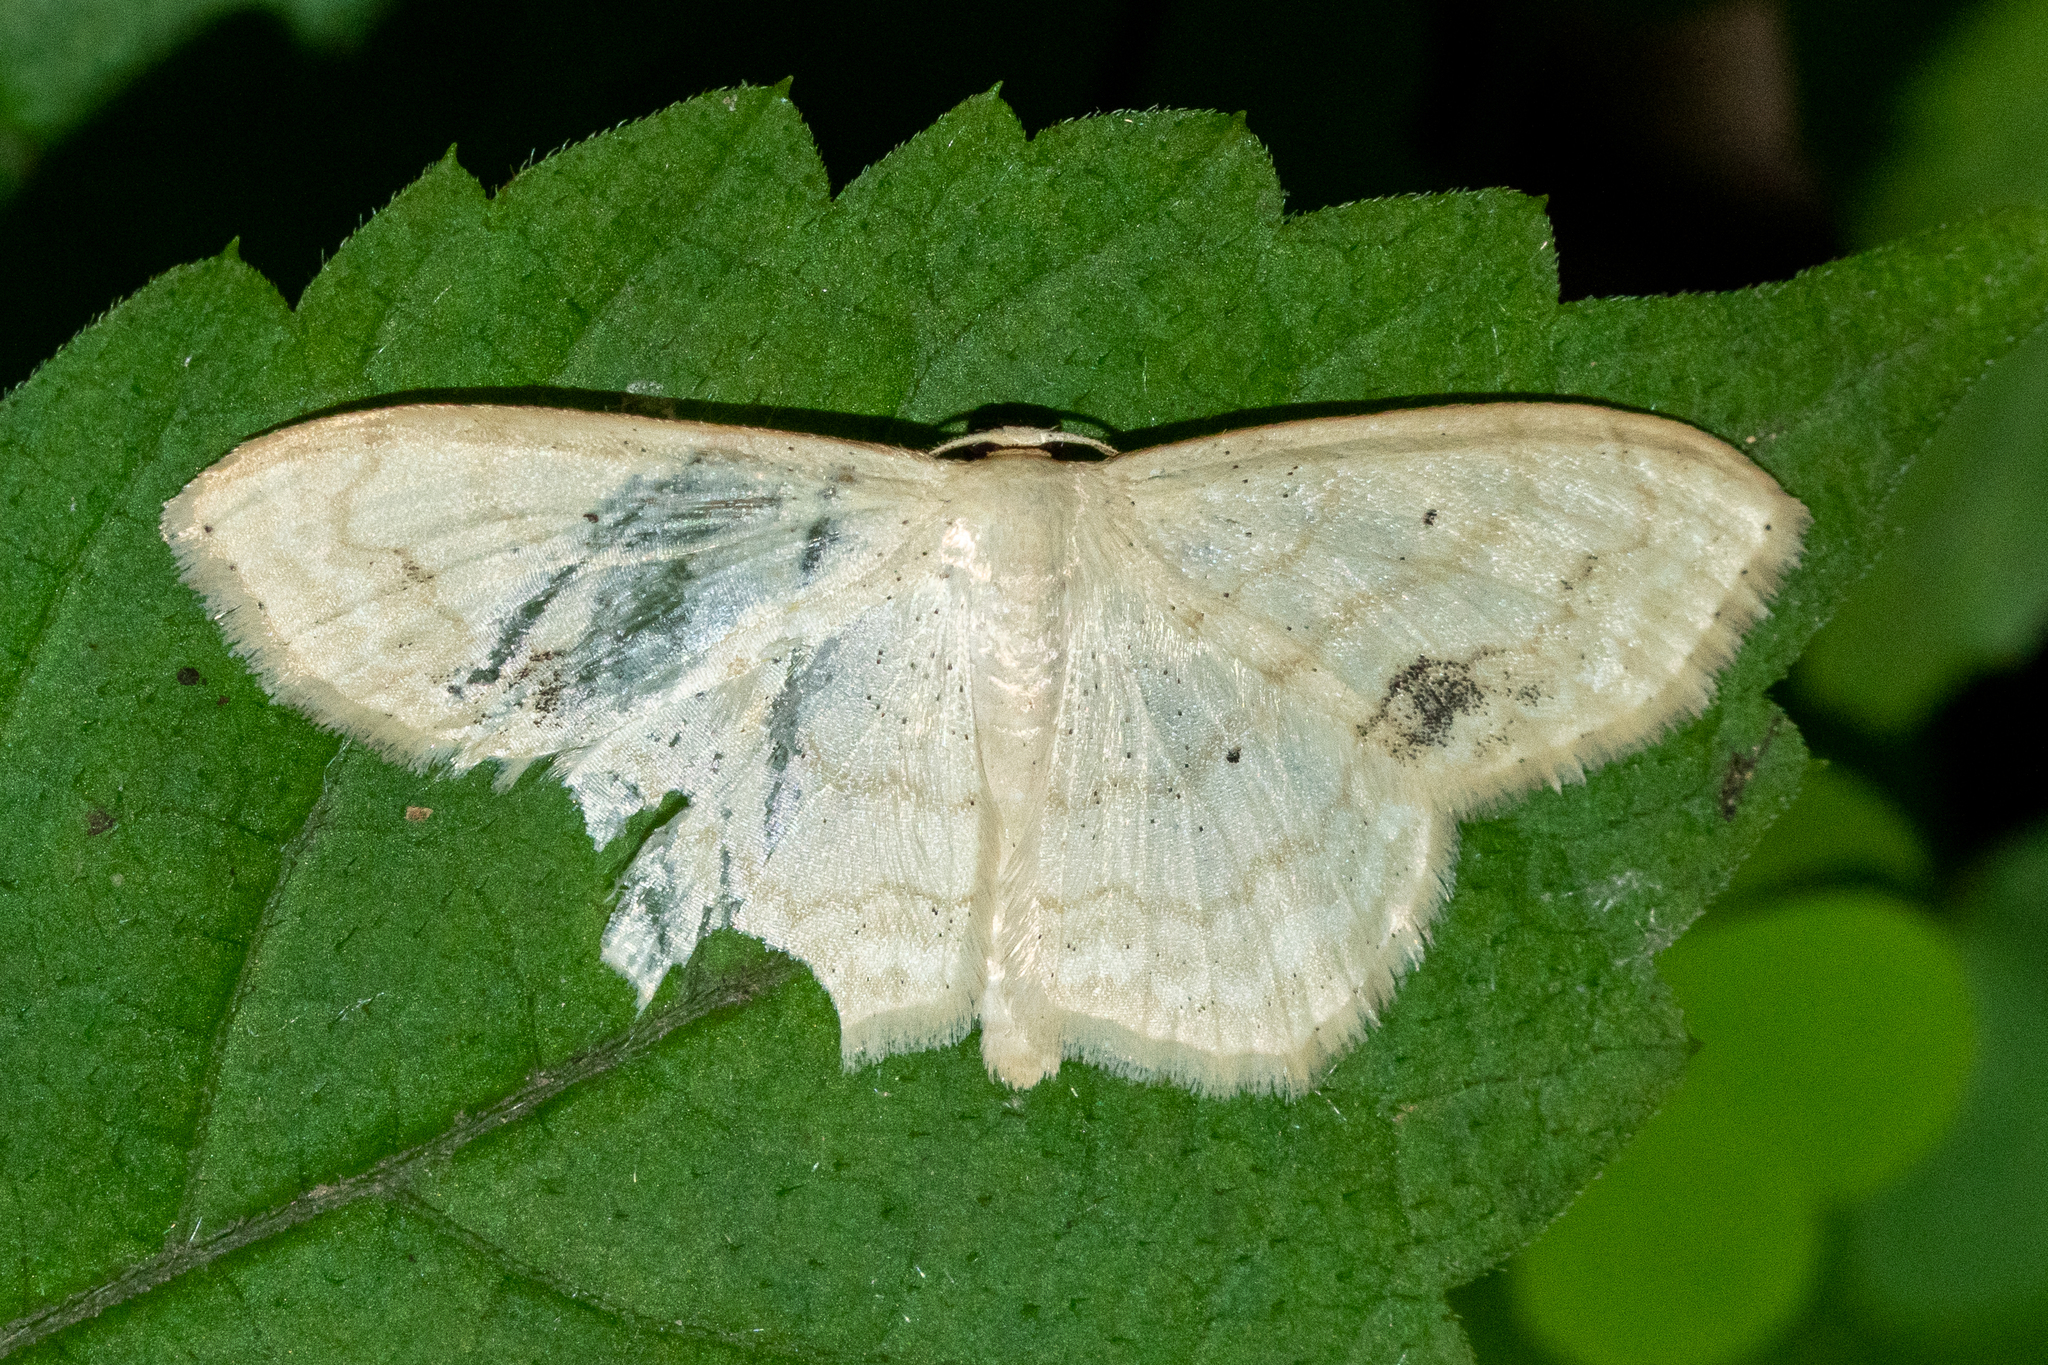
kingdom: Animalia
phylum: Arthropoda
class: Insecta
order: Lepidoptera
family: Geometridae
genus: Scopula
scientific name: Scopula limboundata
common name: Large lace border
